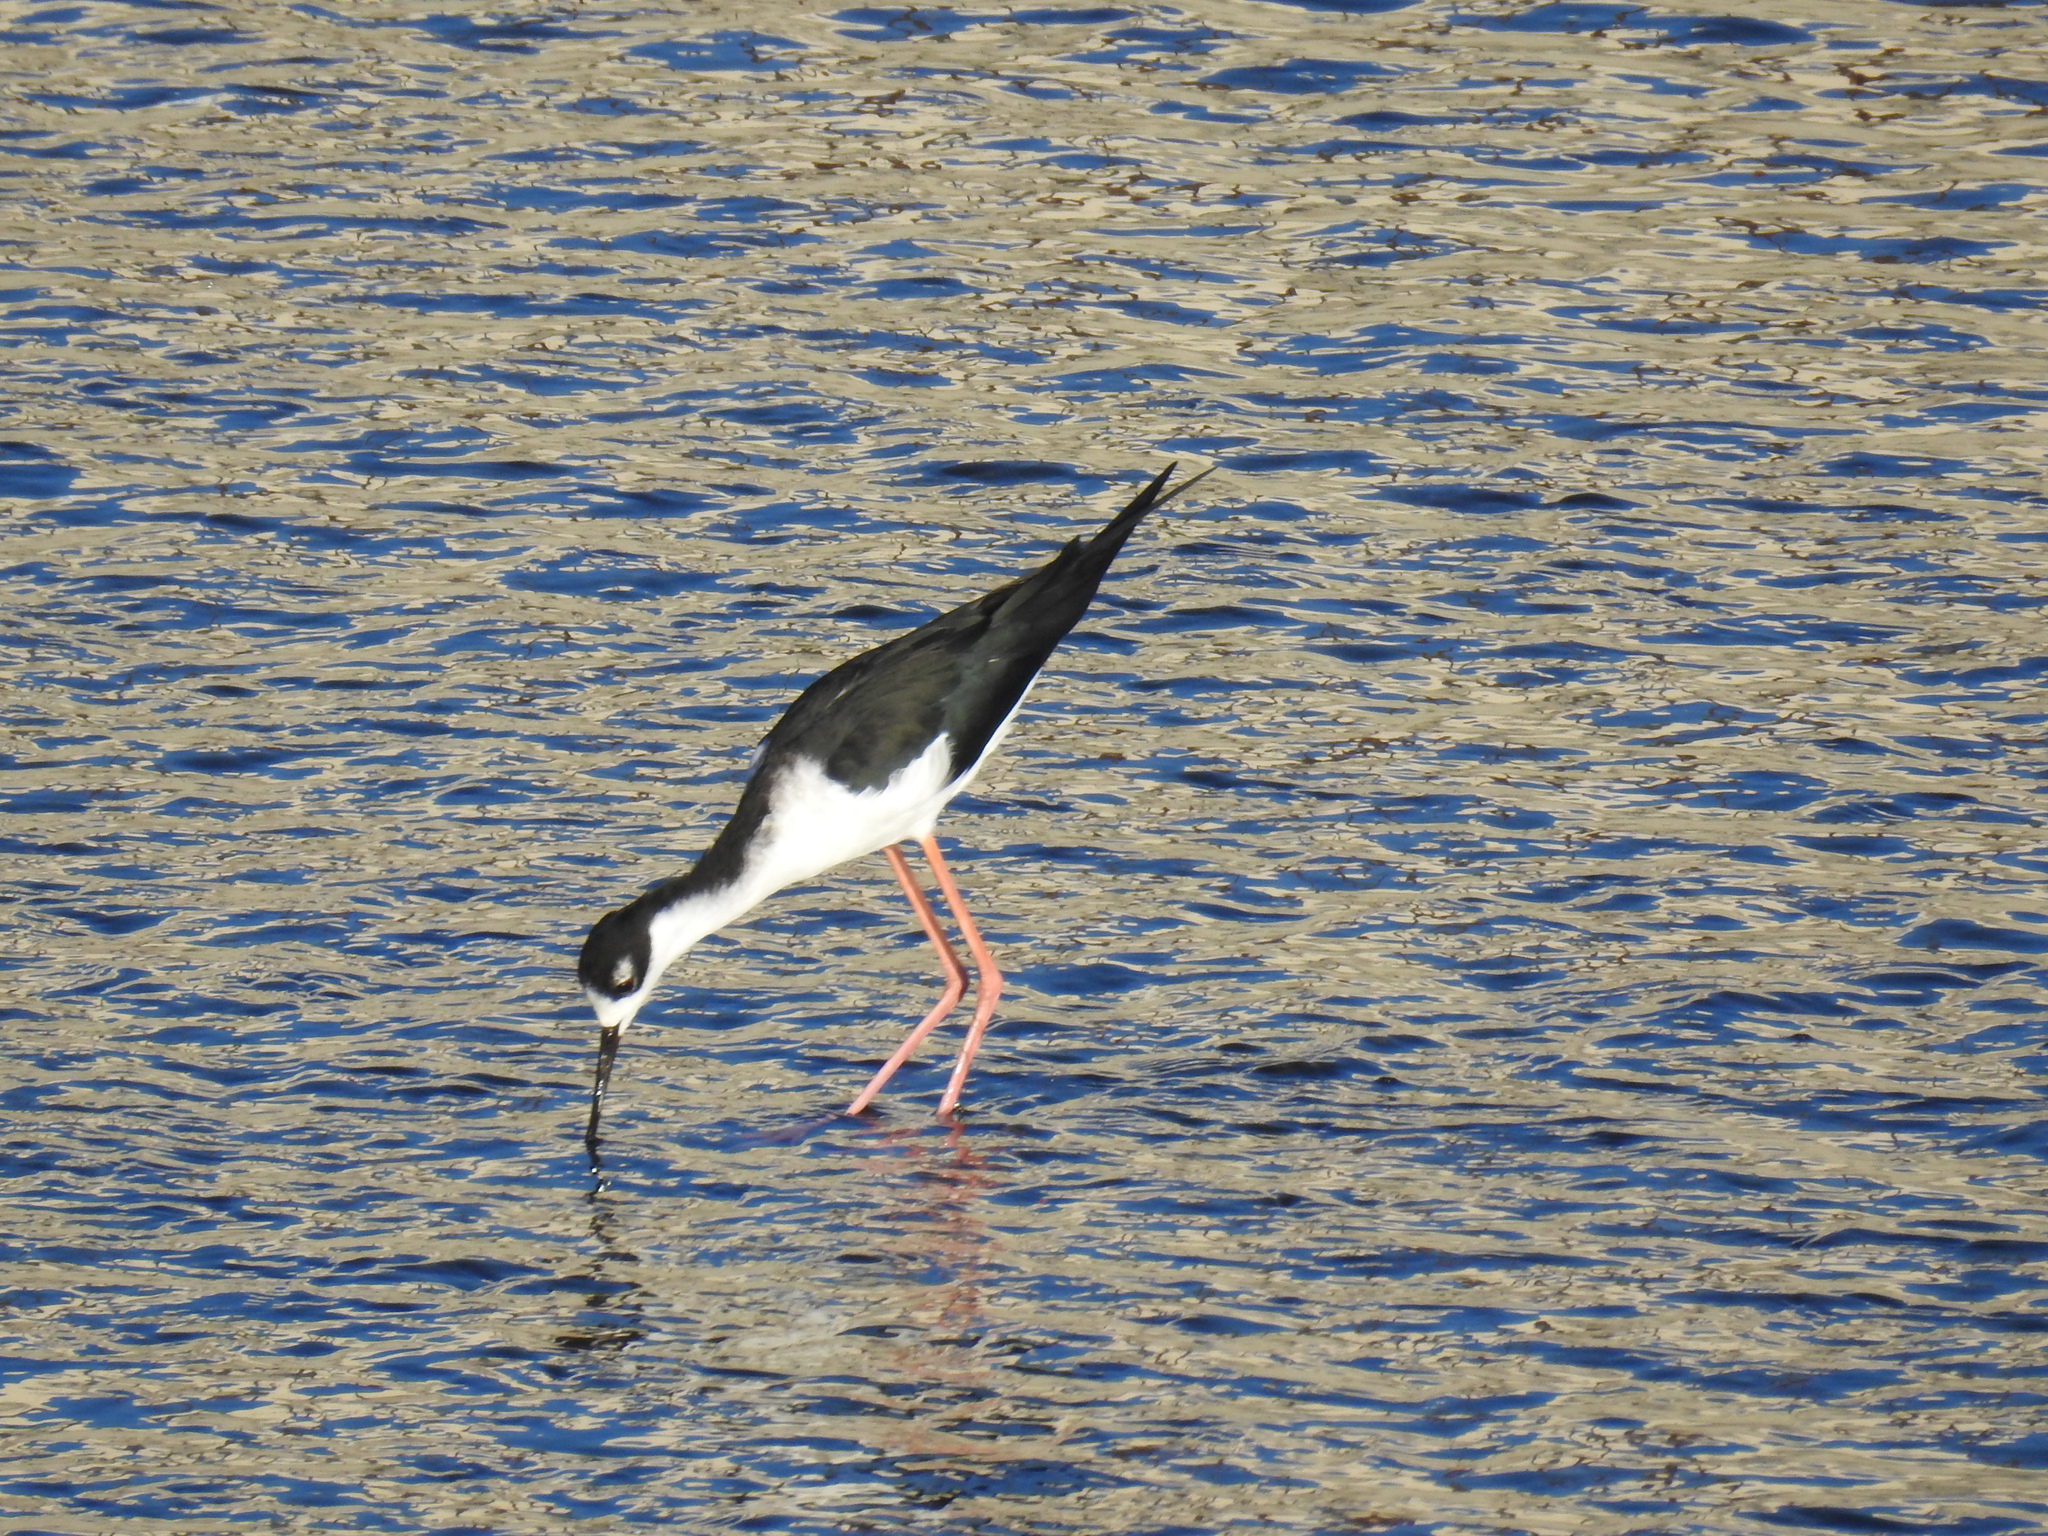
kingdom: Animalia
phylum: Chordata
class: Aves
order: Charadriiformes
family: Recurvirostridae
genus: Himantopus
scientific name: Himantopus mexicanus
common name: Black-necked stilt
